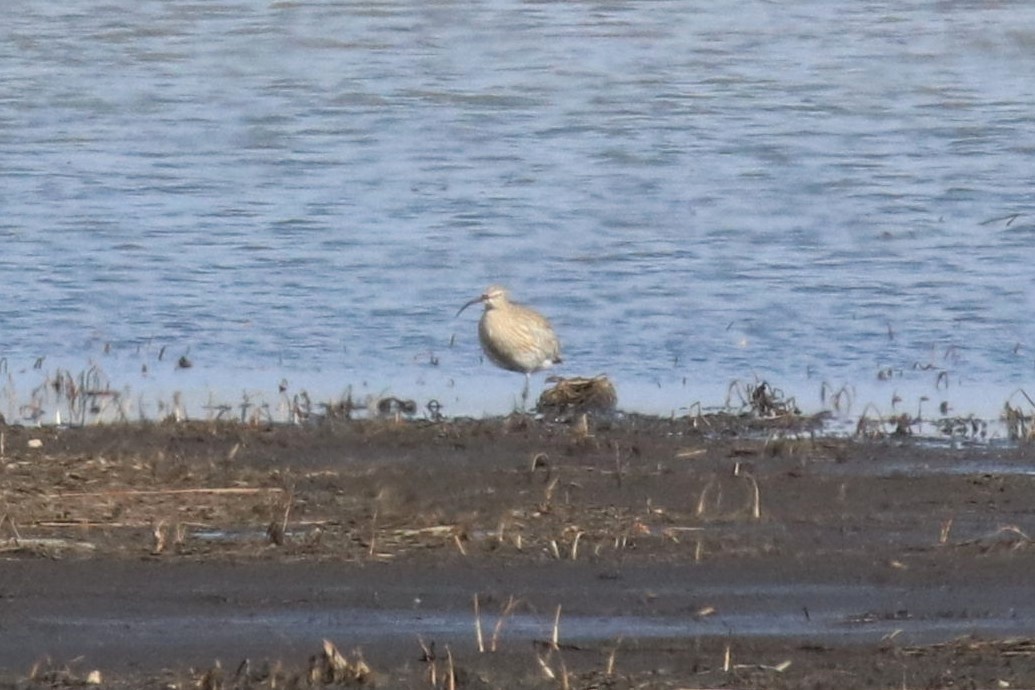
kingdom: Animalia
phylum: Chordata
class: Aves
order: Charadriiformes
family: Scolopacidae
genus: Numenius
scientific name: Numenius arquata
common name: Eurasian curlew
